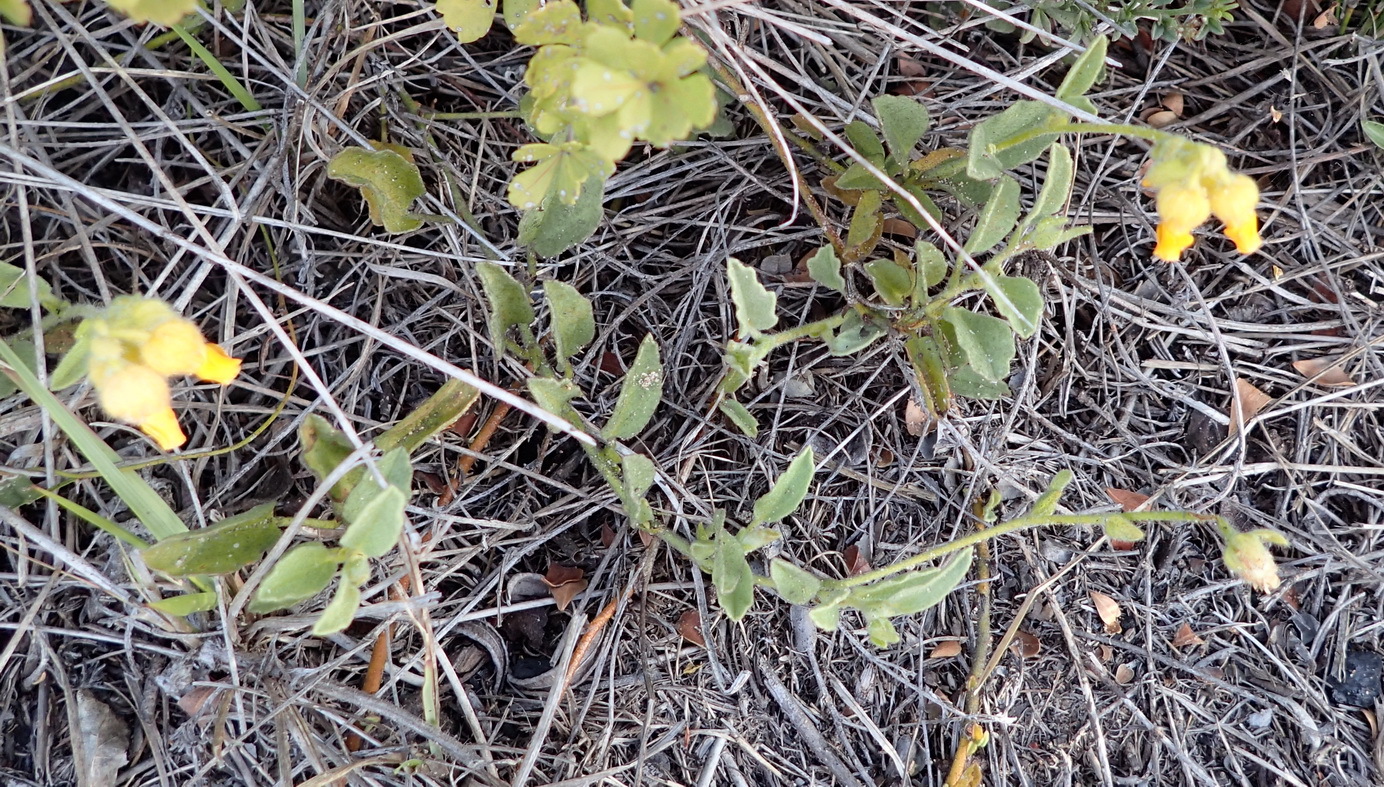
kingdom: Plantae
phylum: Tracheophyta
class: Magnoliopsida
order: Malvales
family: Malvaceae
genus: Hermannia
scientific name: Hermannia decumbens
